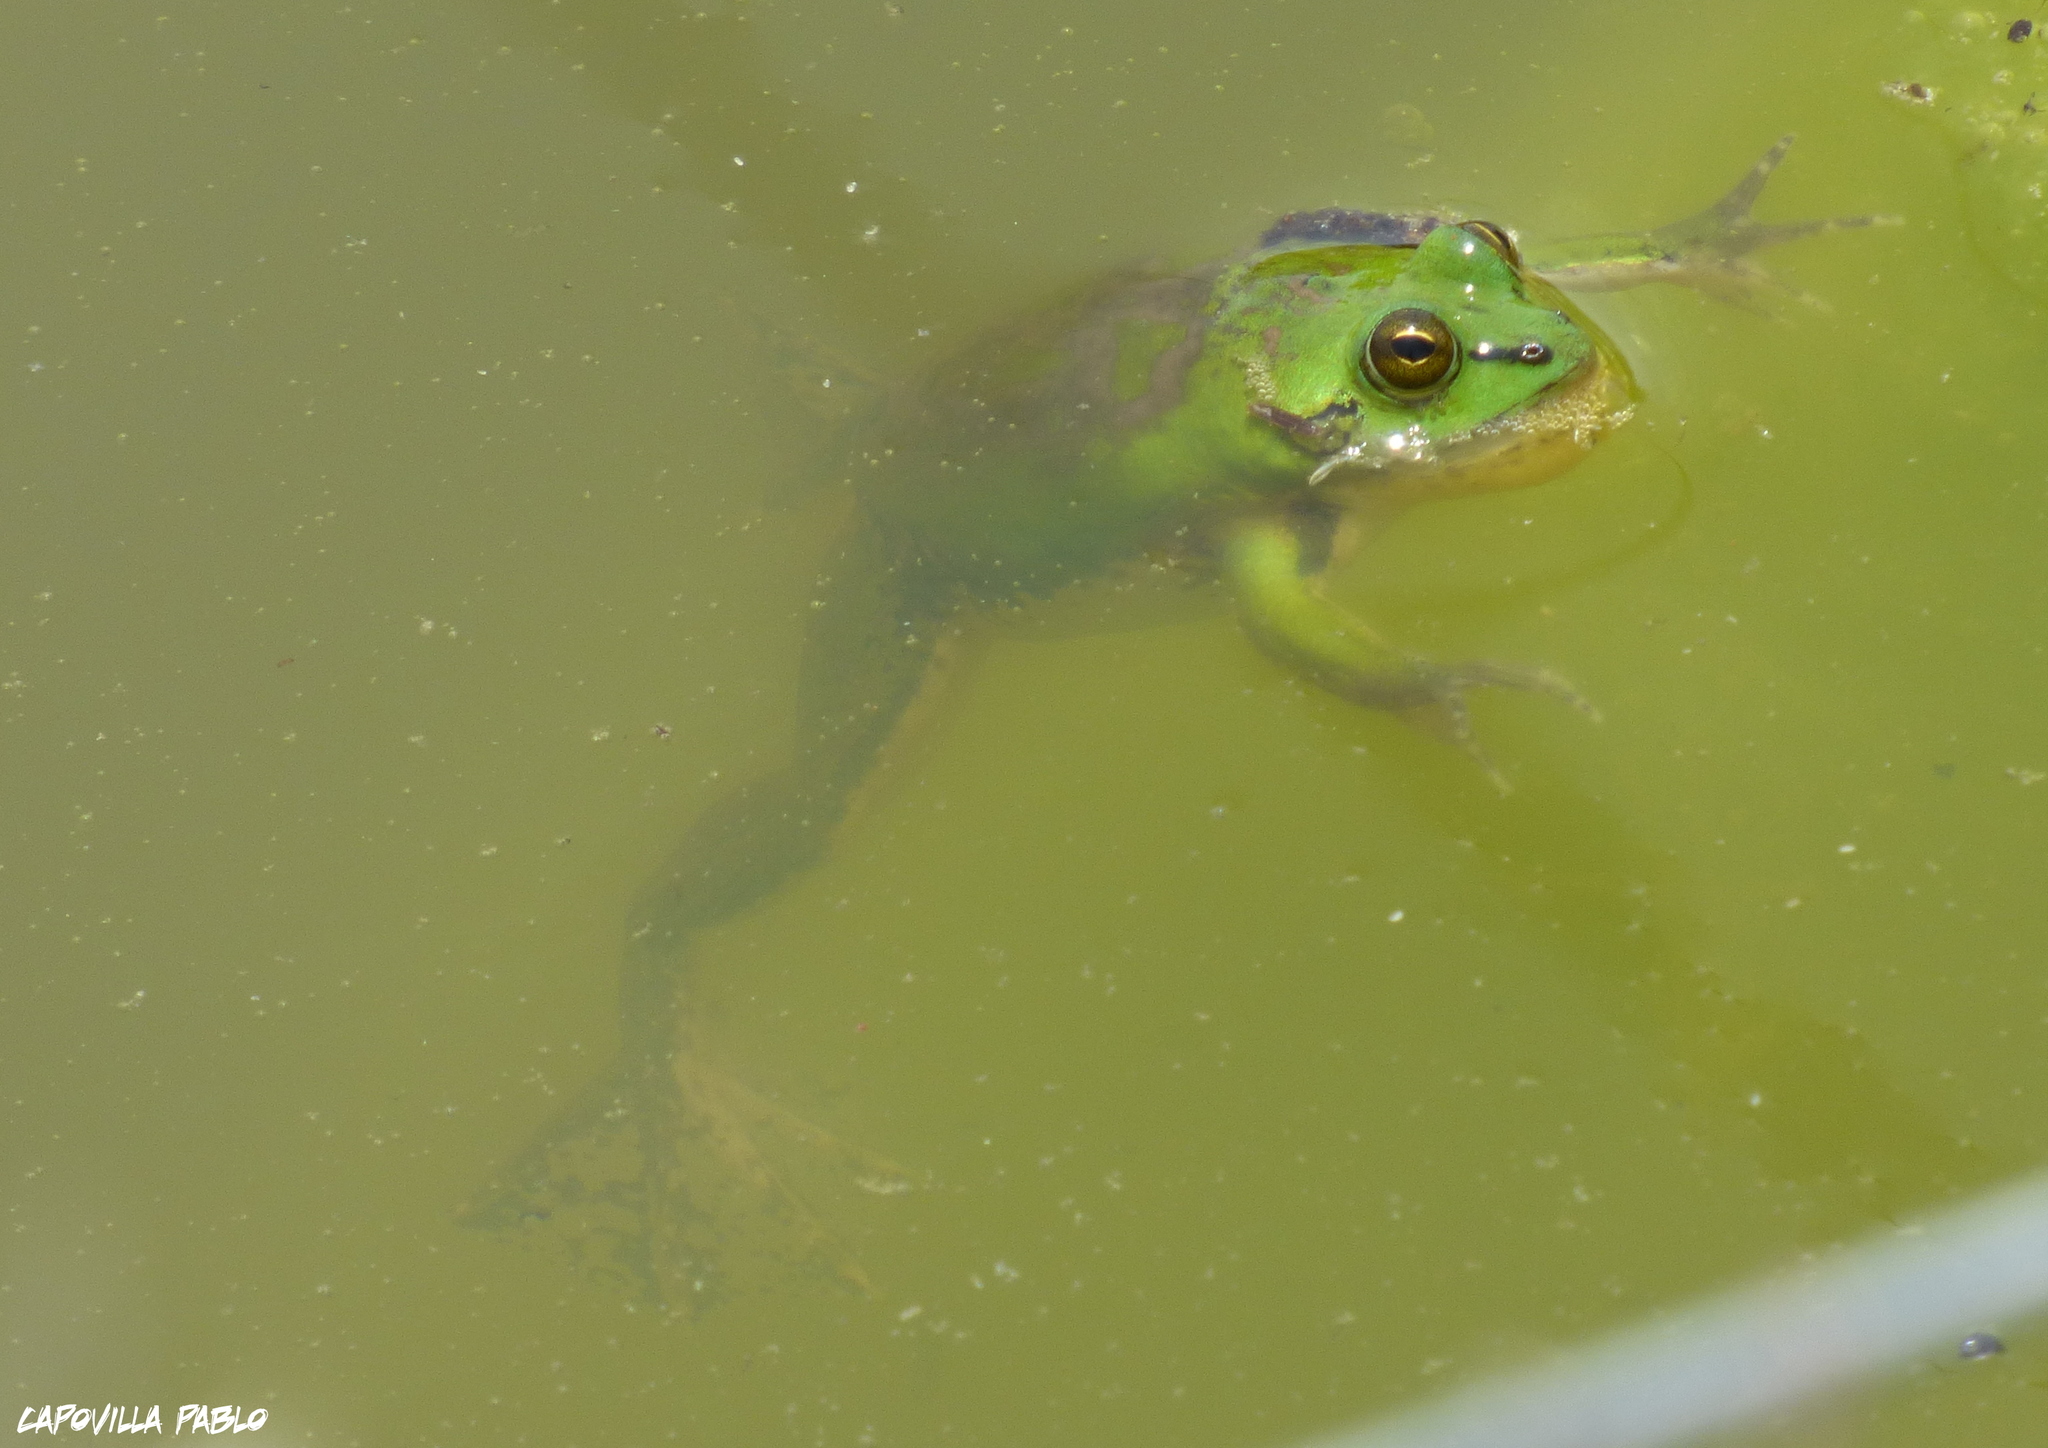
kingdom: Animalia
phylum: Chordata
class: Amphibia
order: Anura
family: Hylidae
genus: Pseudis
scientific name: Pseudis platensis
